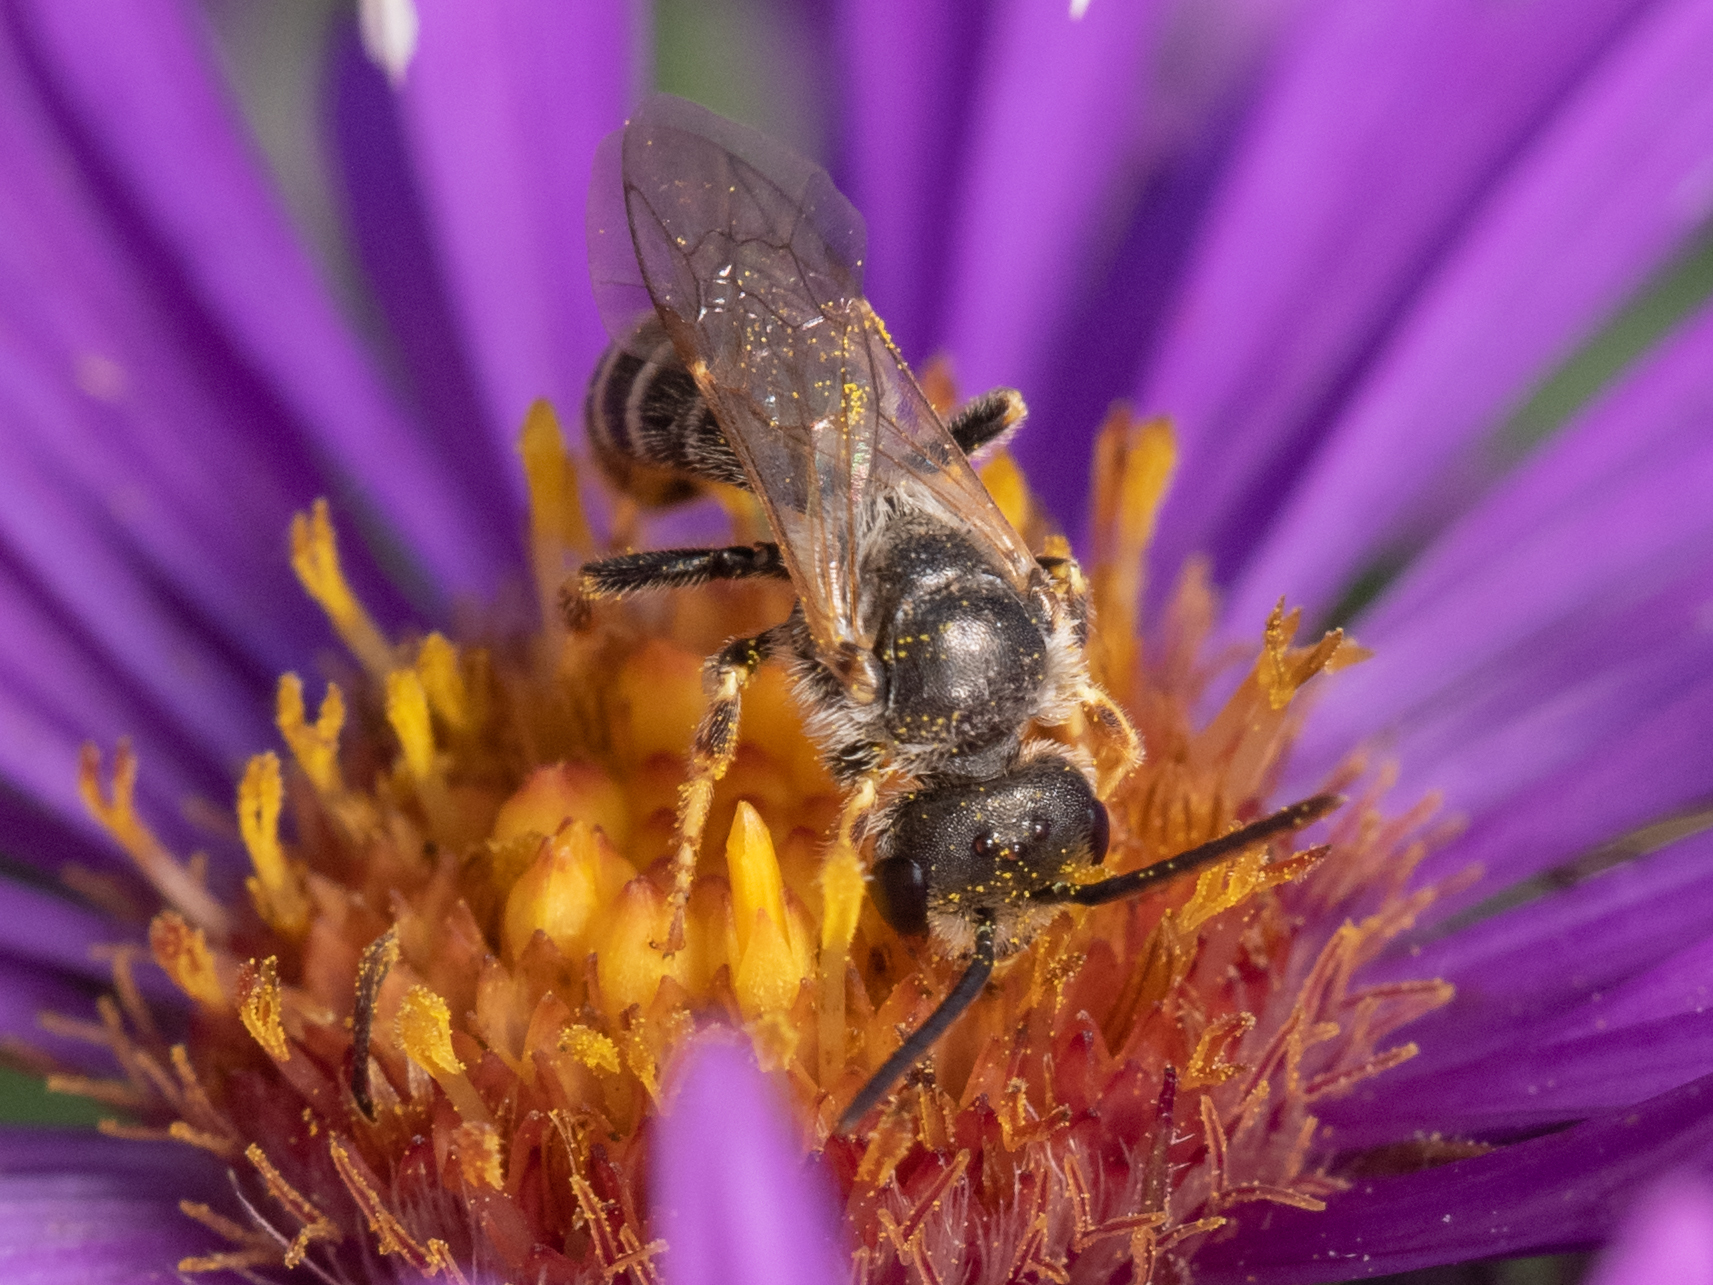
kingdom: Animalia
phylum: Arthropoda
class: Insecta
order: Hymenoptera
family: Halictidae
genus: Halictus
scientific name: Halictus ligatus
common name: Ligated furrow bee
